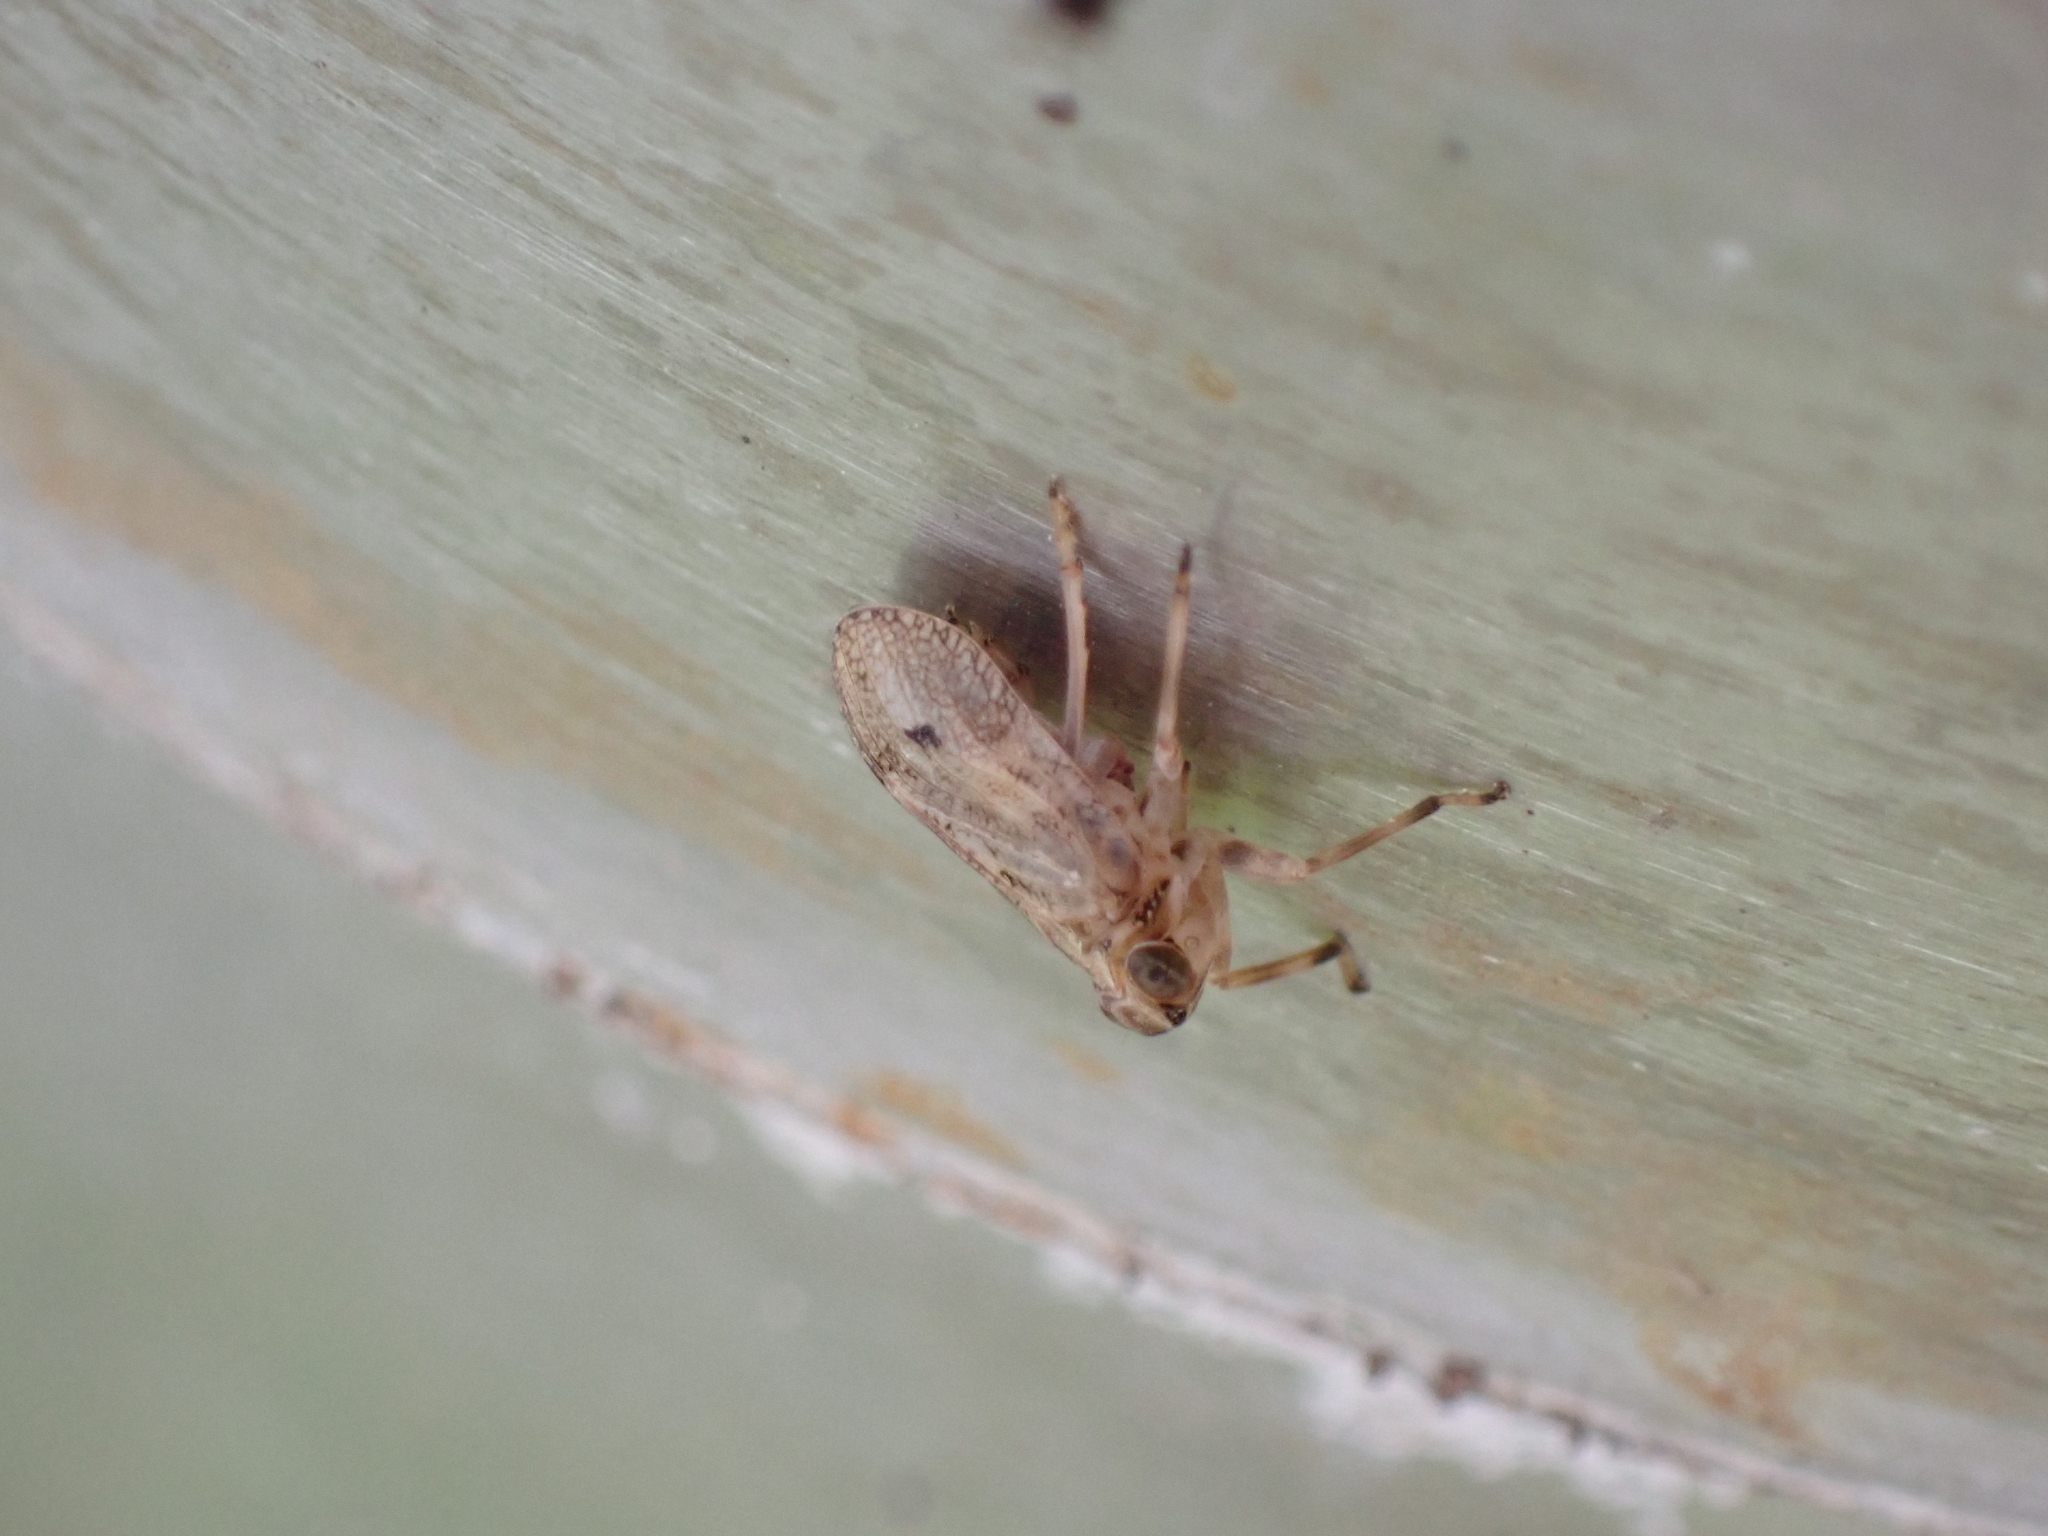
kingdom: Animalia
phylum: Arthropoda
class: Insecta
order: Hemiptera
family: Issidae
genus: Issus
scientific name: Issus coleoptratus
